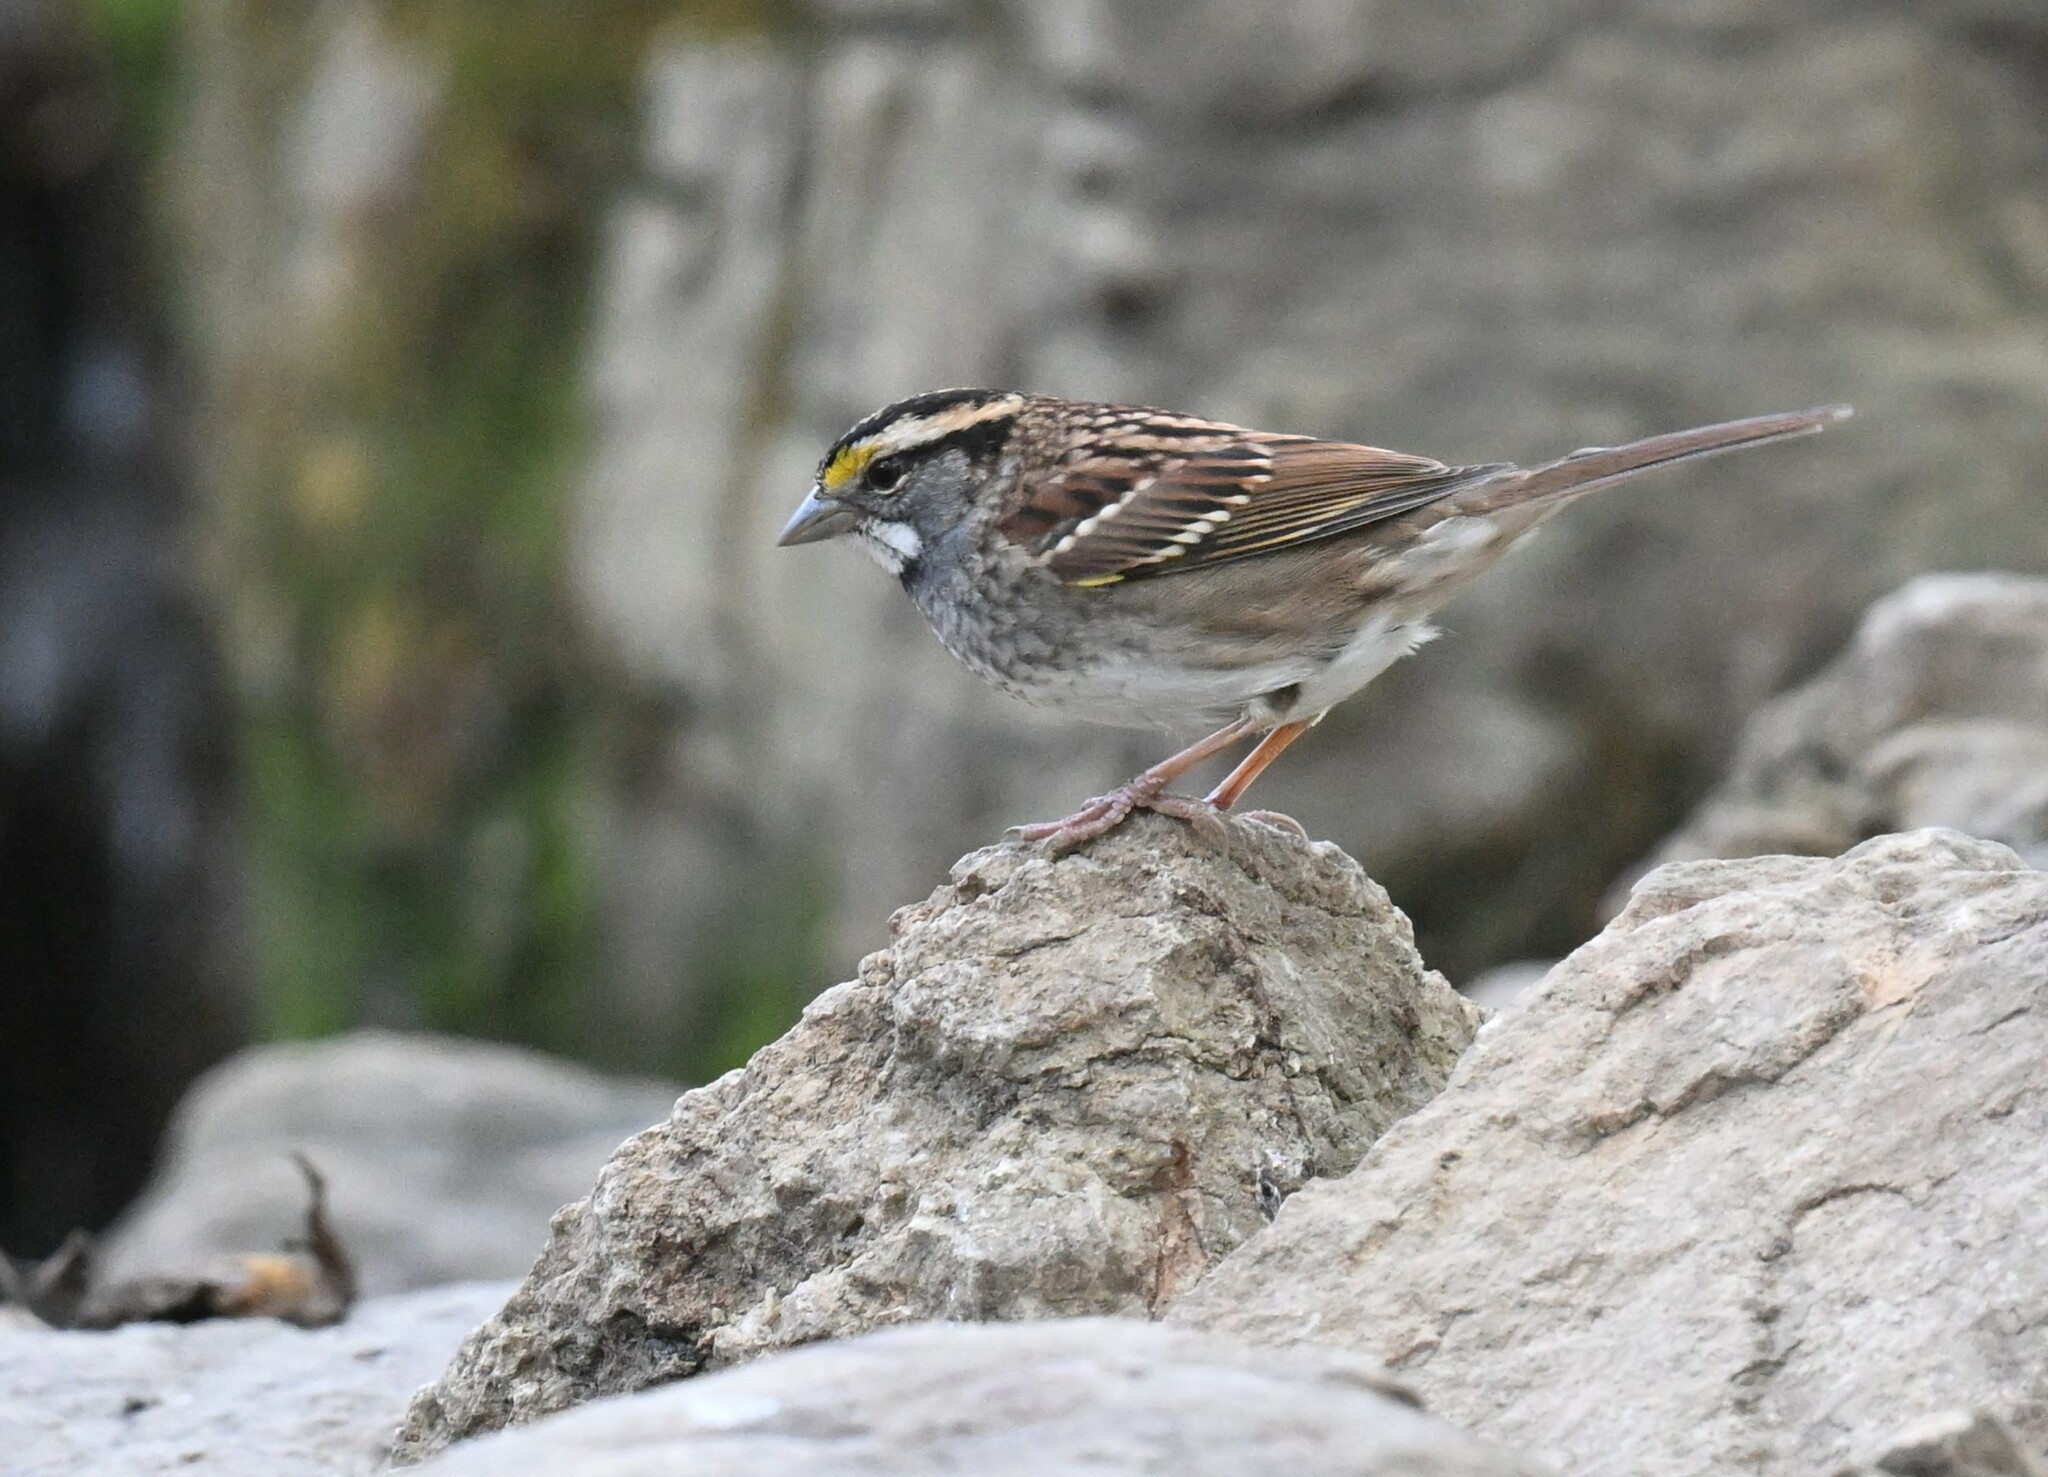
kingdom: Animalia
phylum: Chordata
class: Aves
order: Passeriformes
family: Passerellidae
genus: Zonotrichia
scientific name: Zonotrichia albicollis
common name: White-throated sparrow
